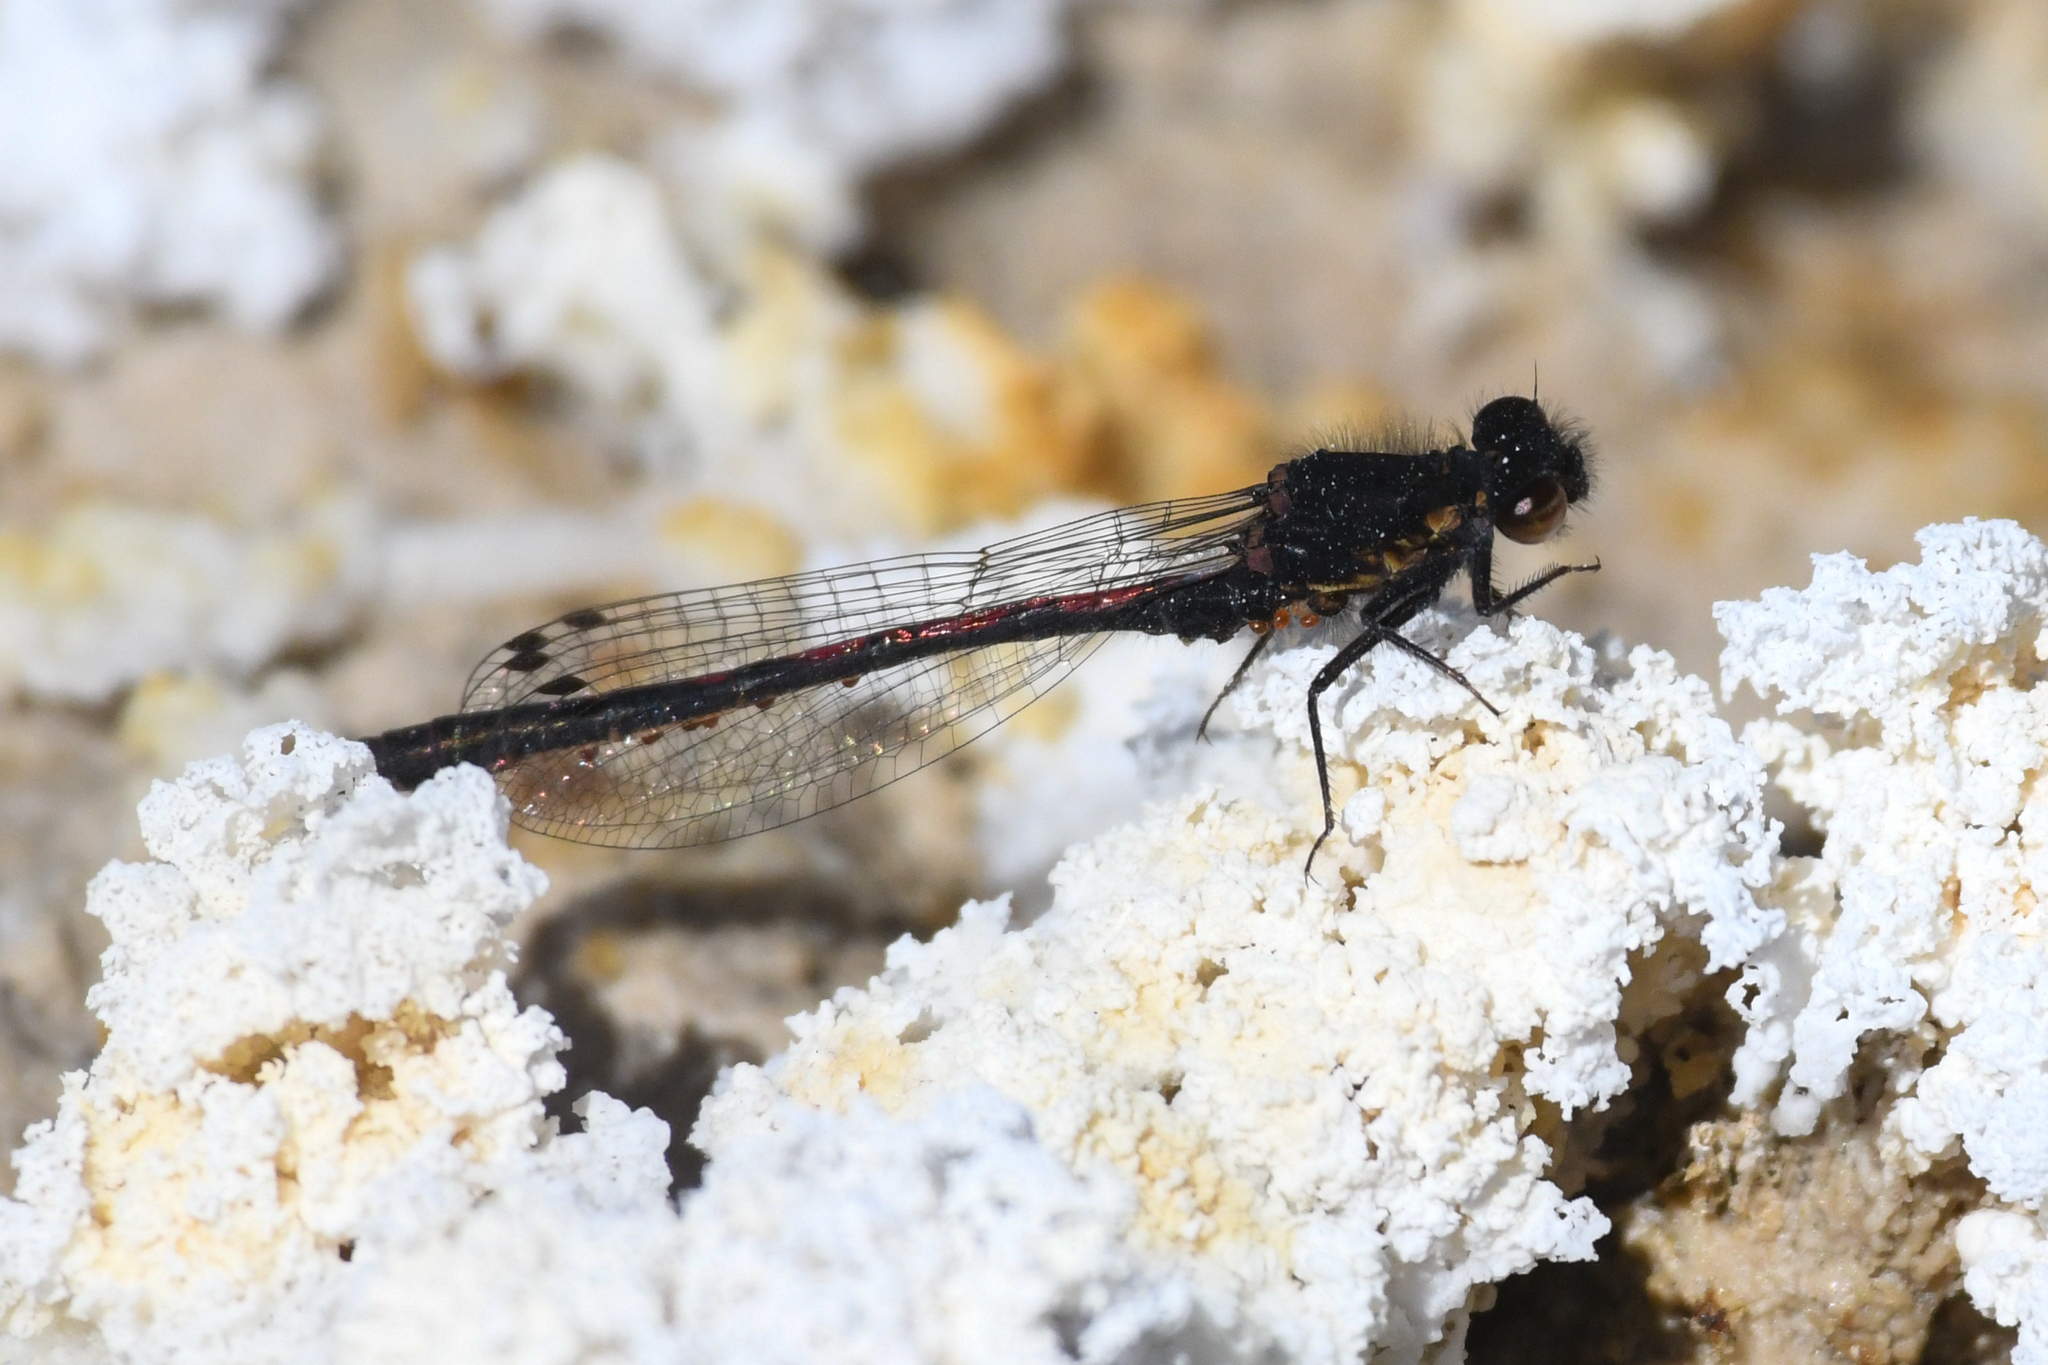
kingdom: Animalia
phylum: Arthropoda
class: Insecta
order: Odonata
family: Coenagrionidae
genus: Amphiagrion
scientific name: Amphiagrion abbreviatum
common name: Western red damsel
